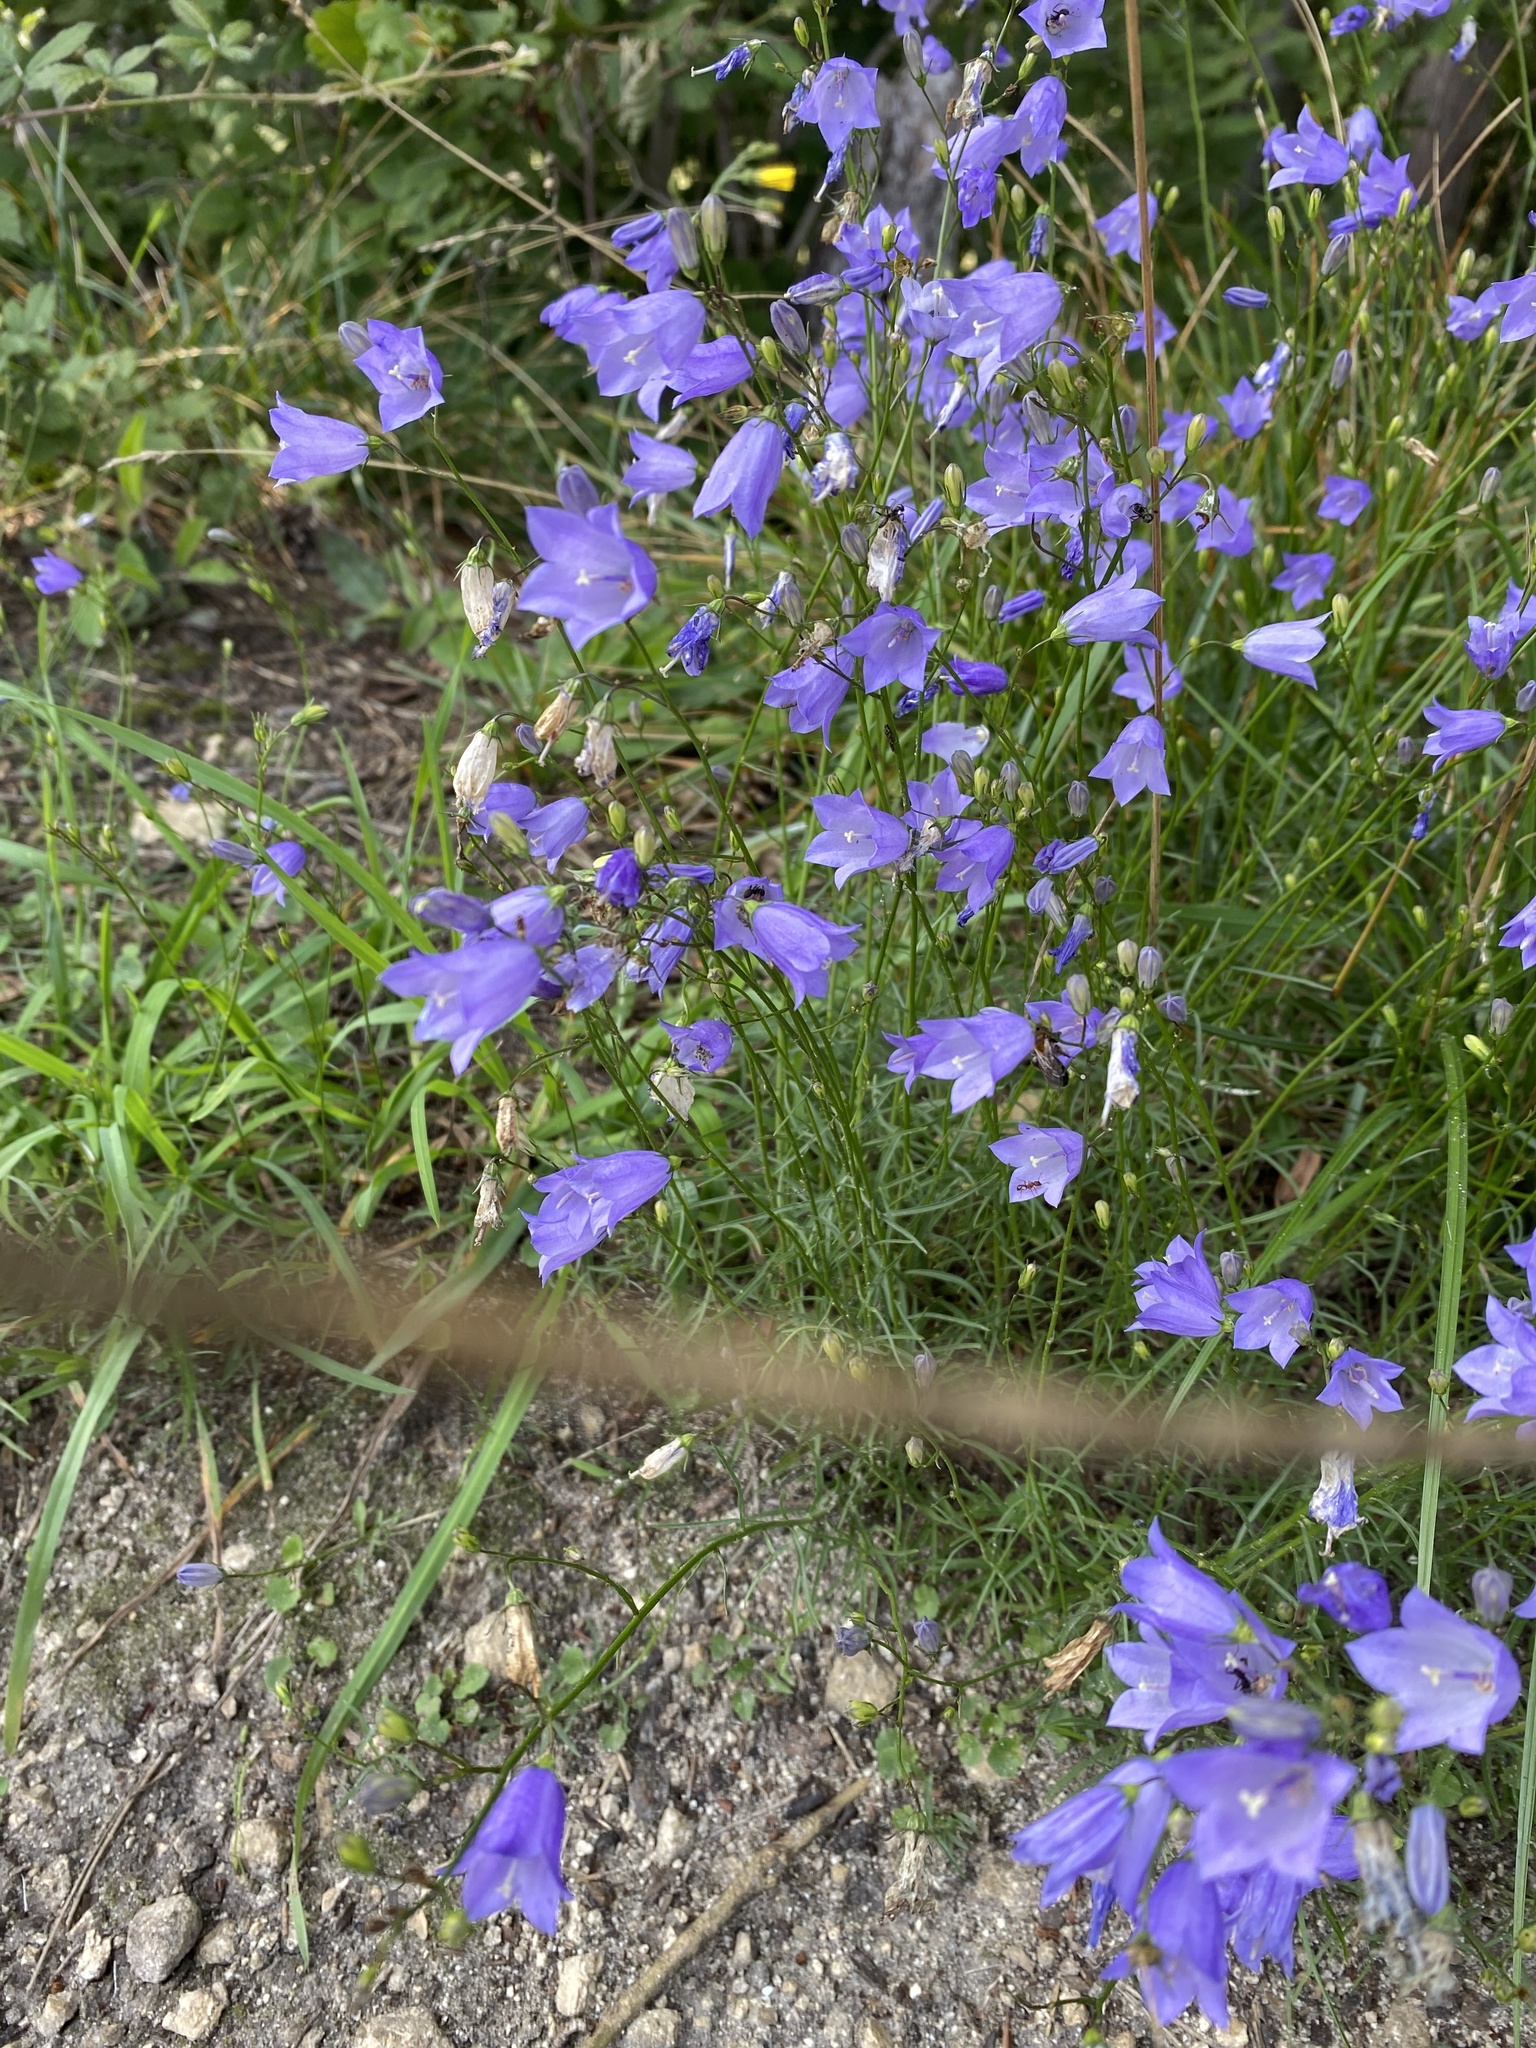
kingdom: Plantae
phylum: Tracheophyta
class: Magnoliopsida
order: Asterales
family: Campanulaceae
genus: Campanula
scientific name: Campanula rotundifolia
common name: Harebell
